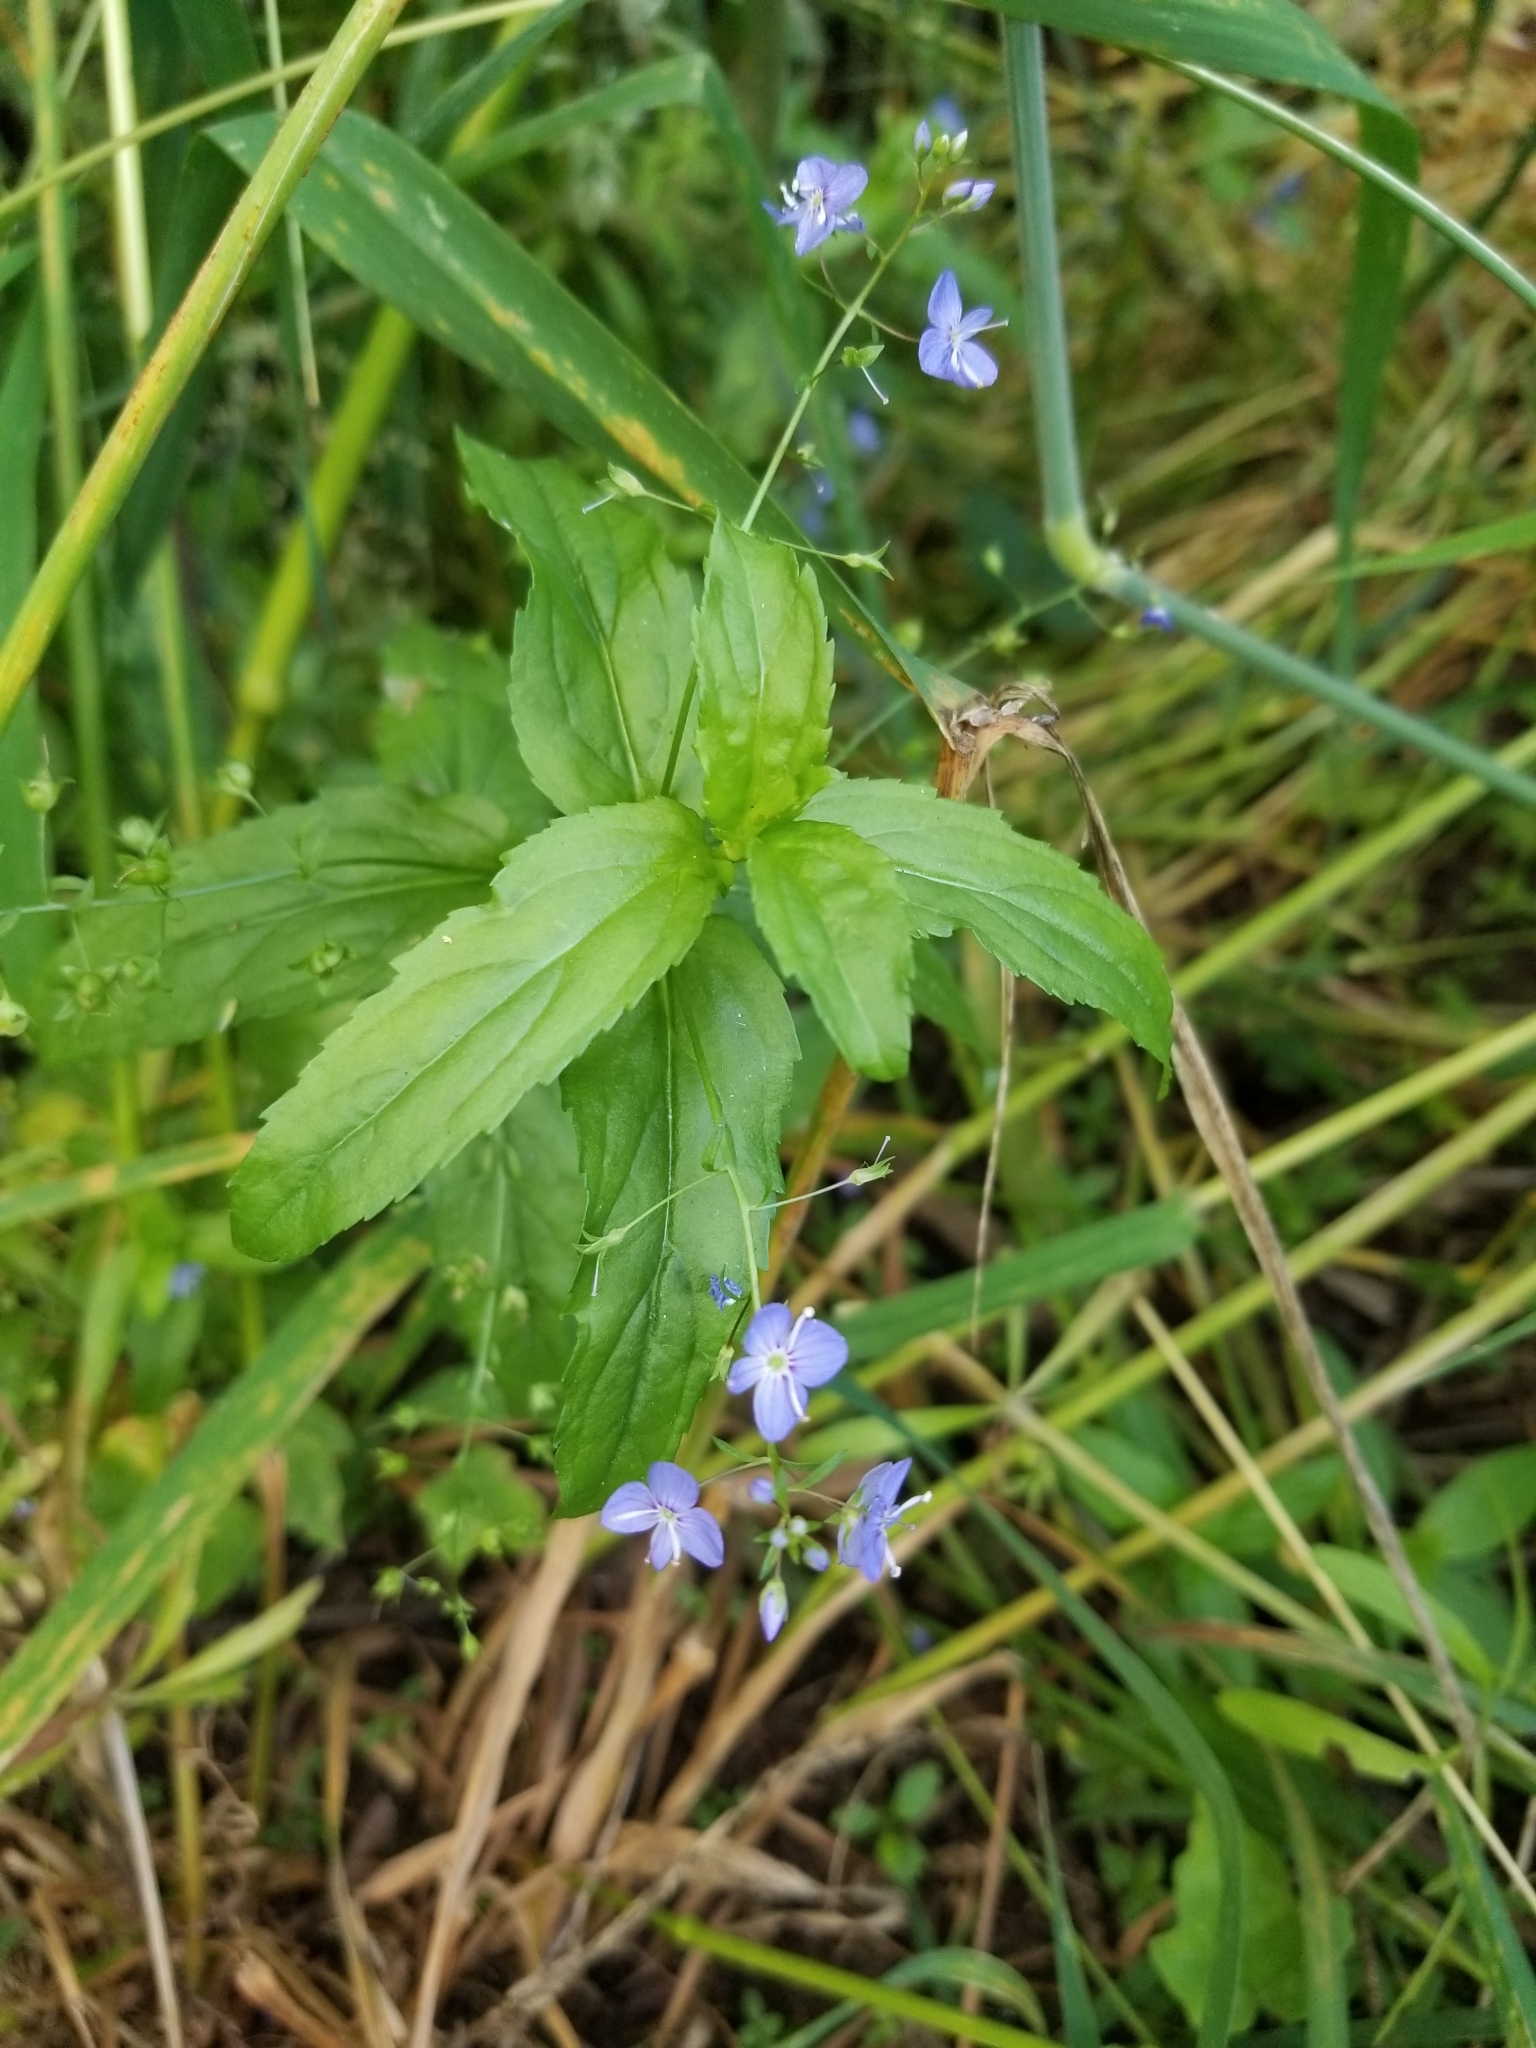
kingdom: Plantae
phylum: Tracheophyta
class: Magnoliopsida
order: Lamiales
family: Plantaginaceae
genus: Veronica
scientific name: Veronica americana
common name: American brooklime
